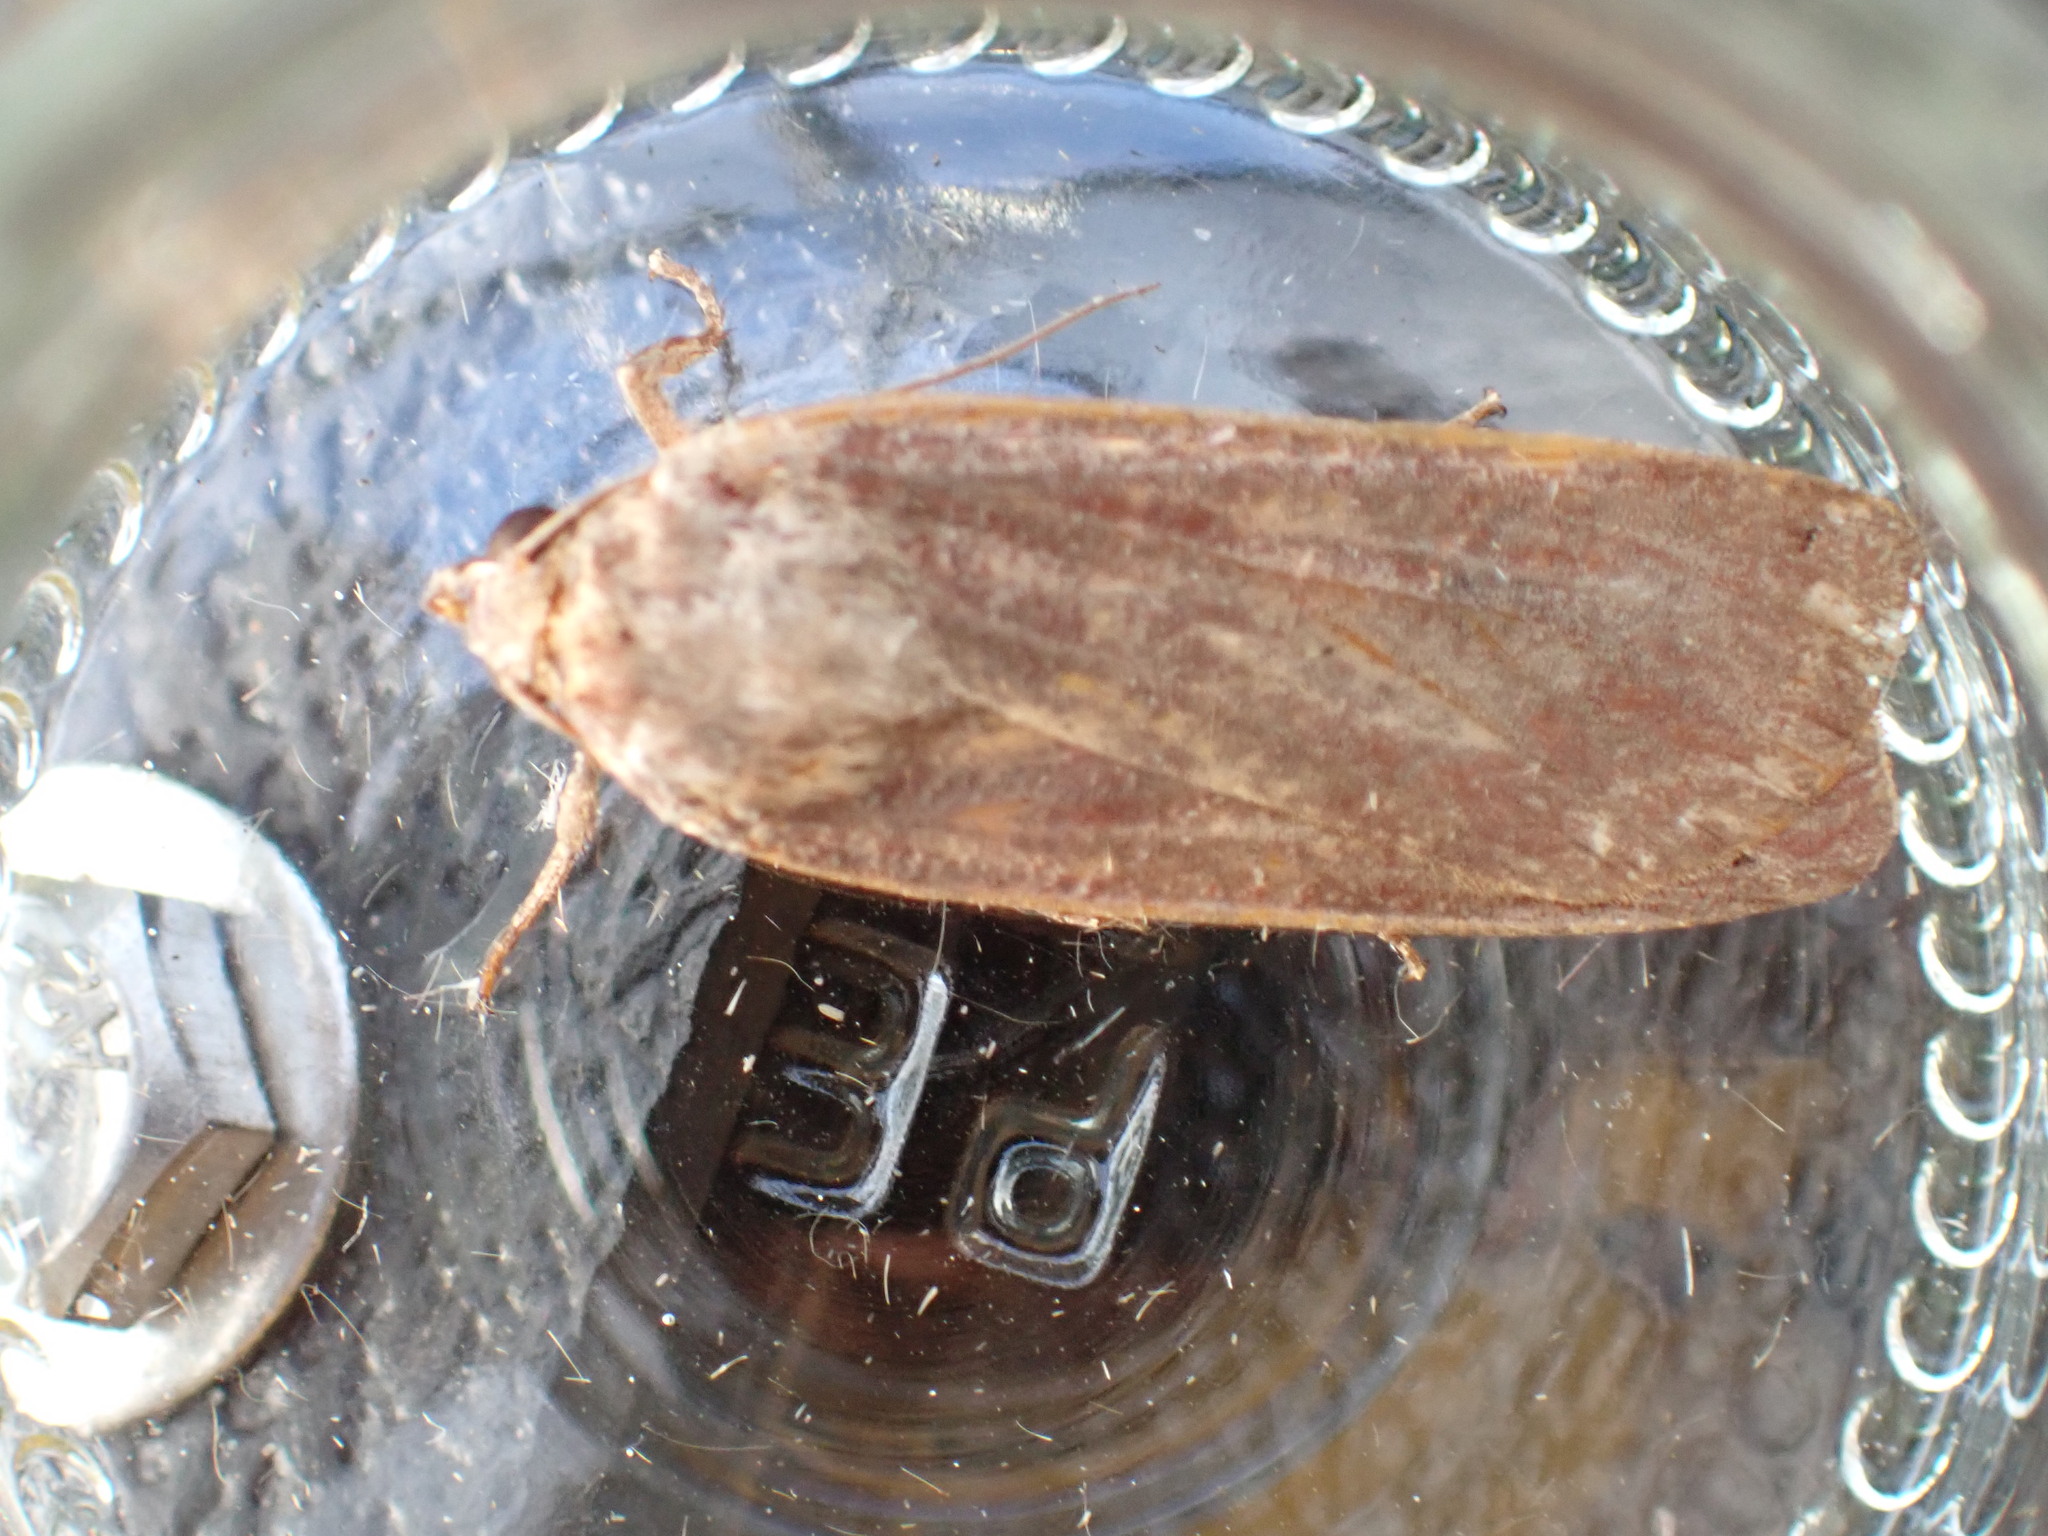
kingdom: Animalia
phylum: Arthropoda
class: Insecta
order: Lepidoptera
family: Noctuidae
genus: Noctua
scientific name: Noctua pronuba
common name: Large yellow underwing
